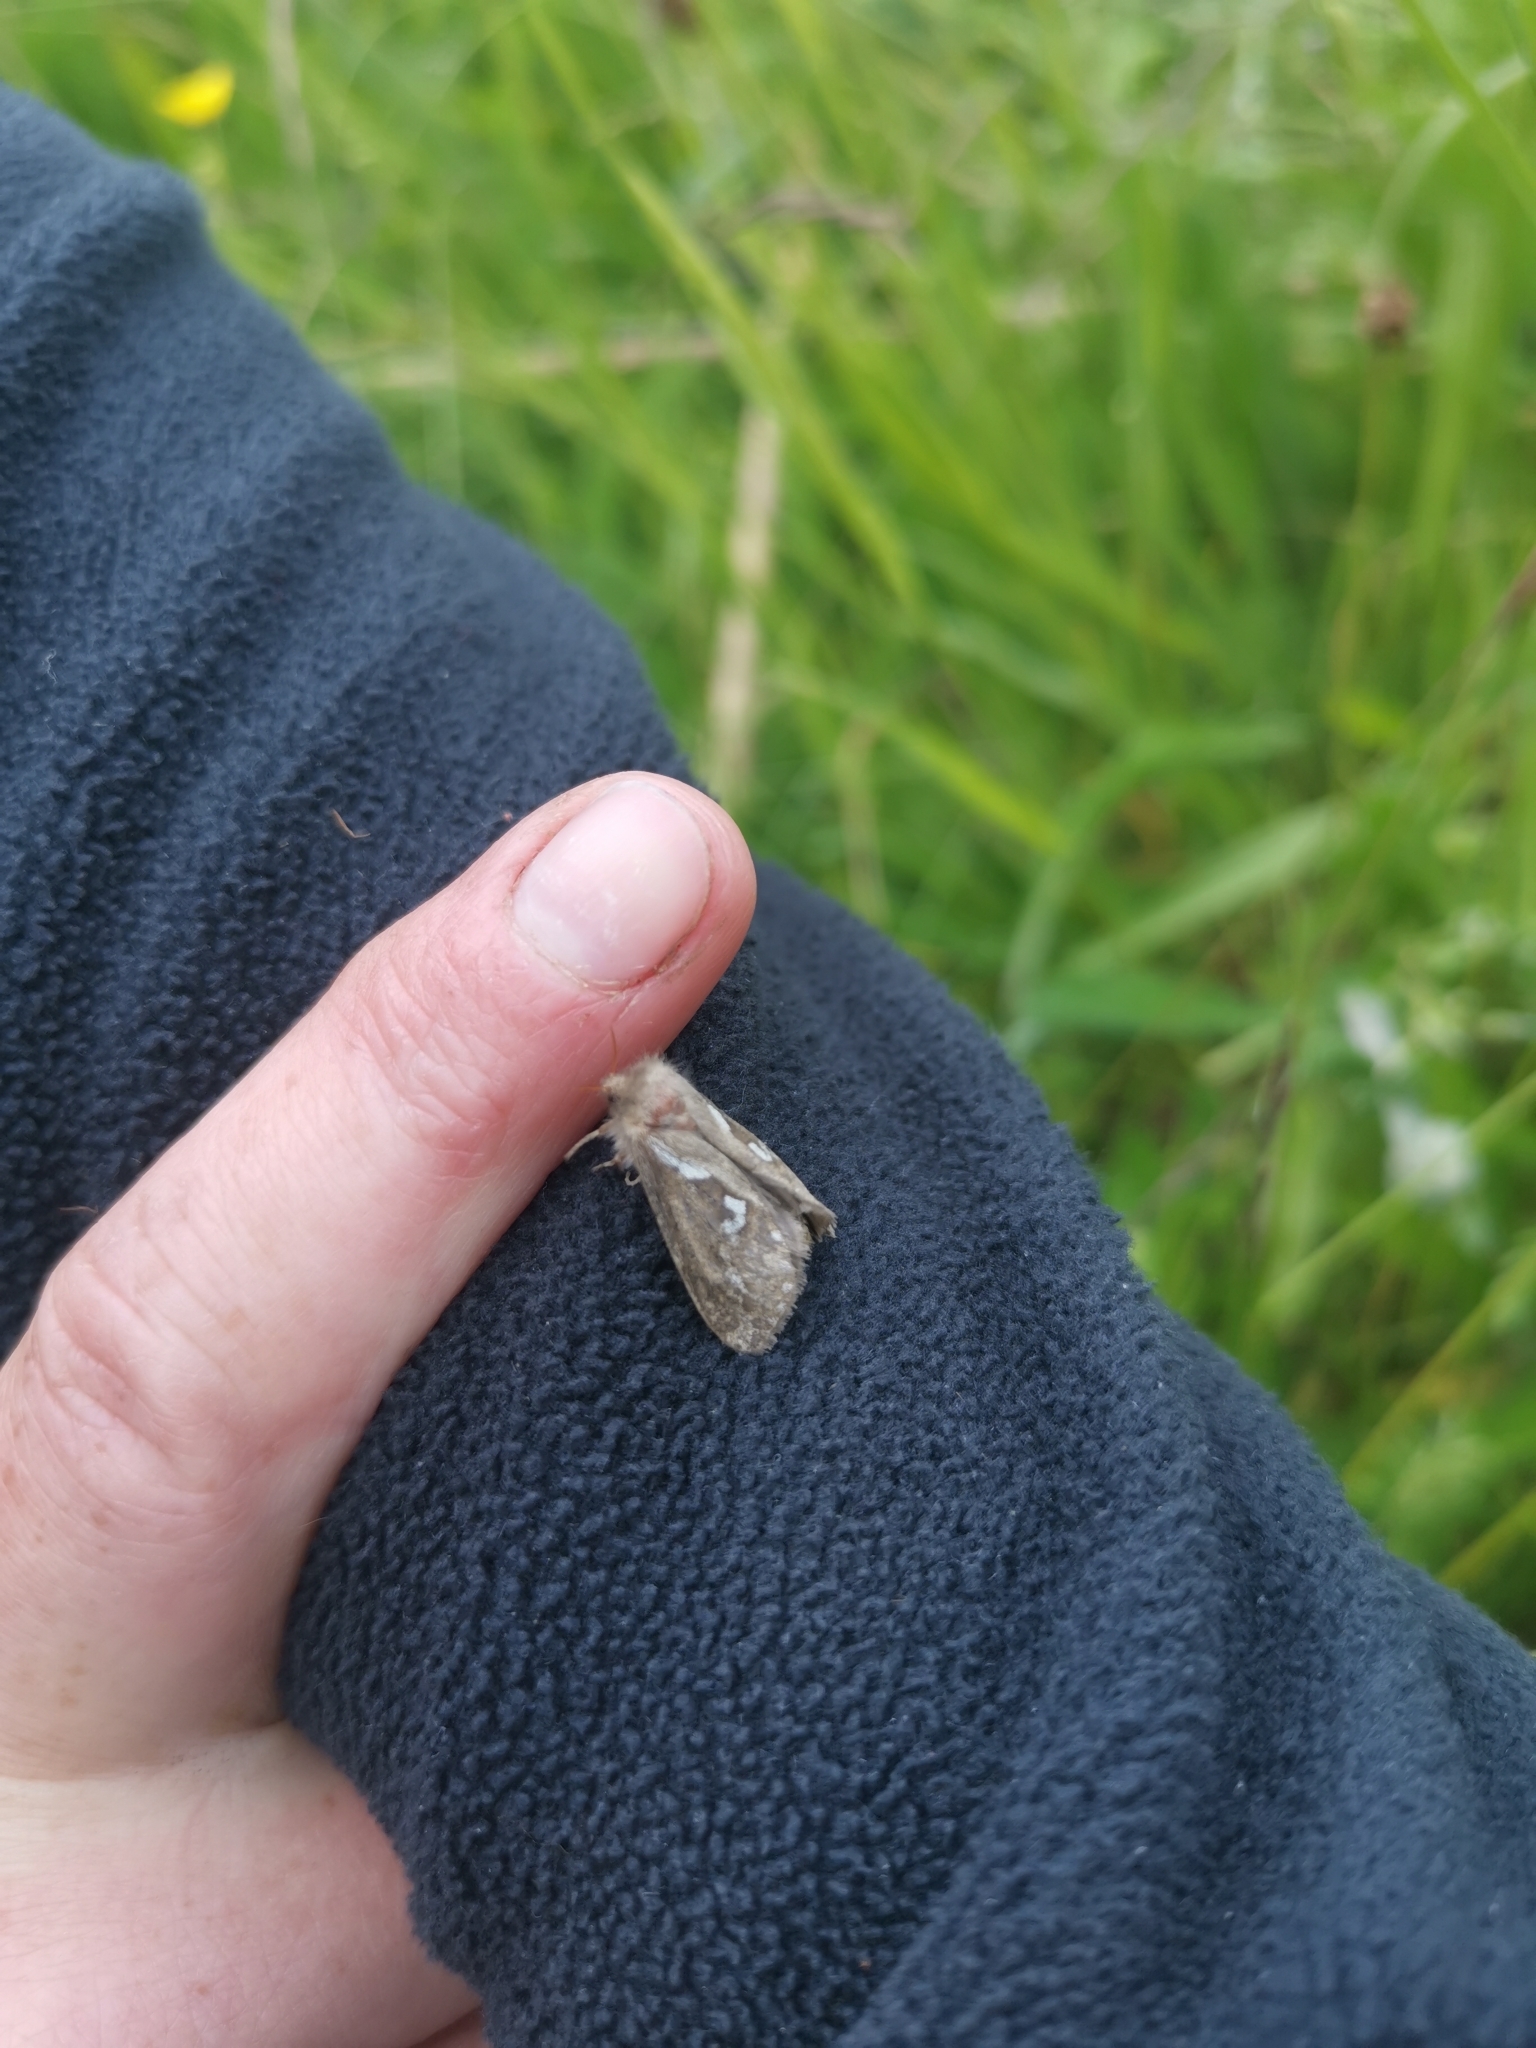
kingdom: Animalia
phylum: Arthropoda
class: Insecta
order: Lepidoptera
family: Hepialidae
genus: Korscheltellus
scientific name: Korscheltellus lupulina
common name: Common swift
